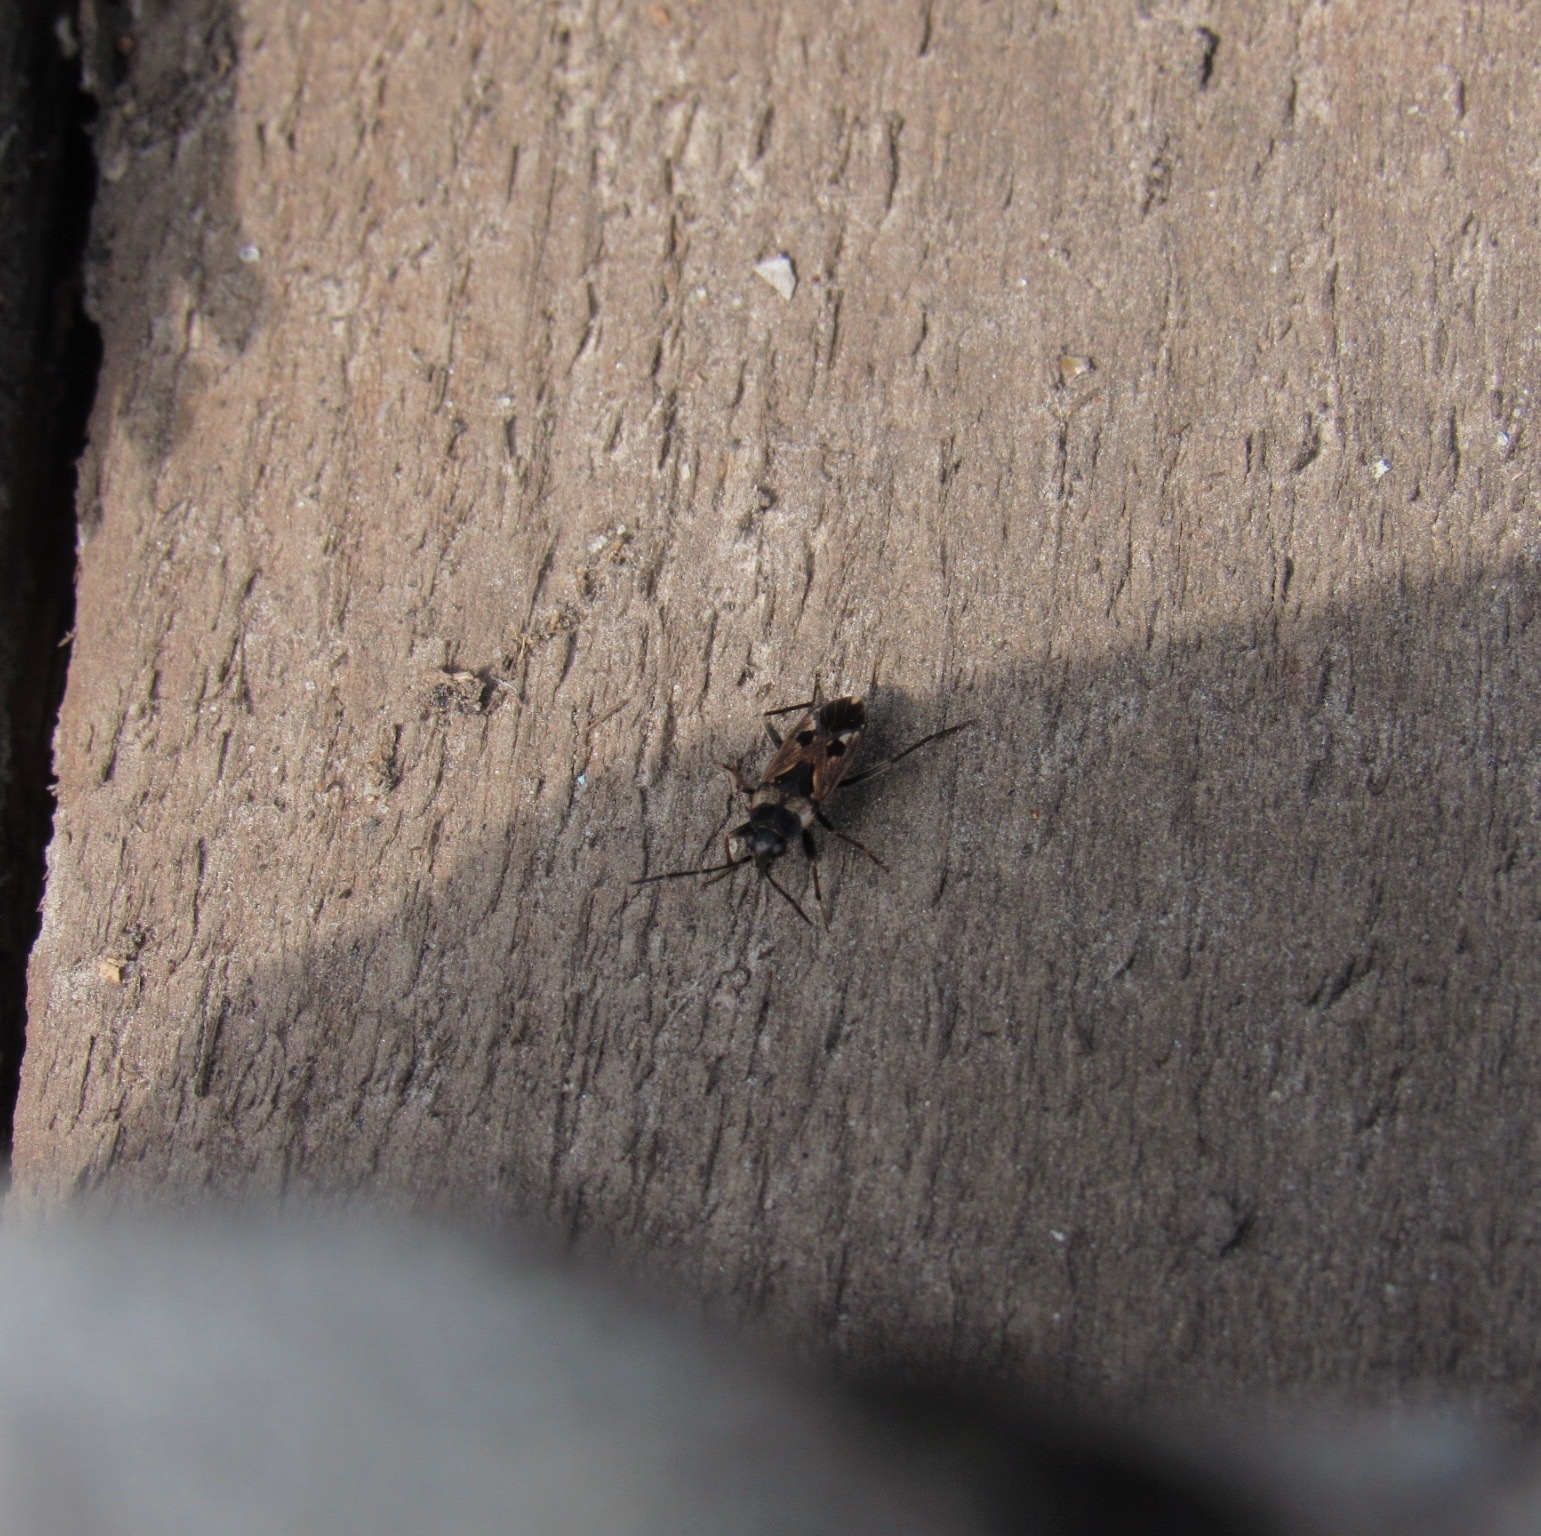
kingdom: Animalia
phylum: Arthropoda
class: Insecta
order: Hemiptera
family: Rhyparochromidae
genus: Rhyparochromus
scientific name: Rhyparochromus vulgaris
